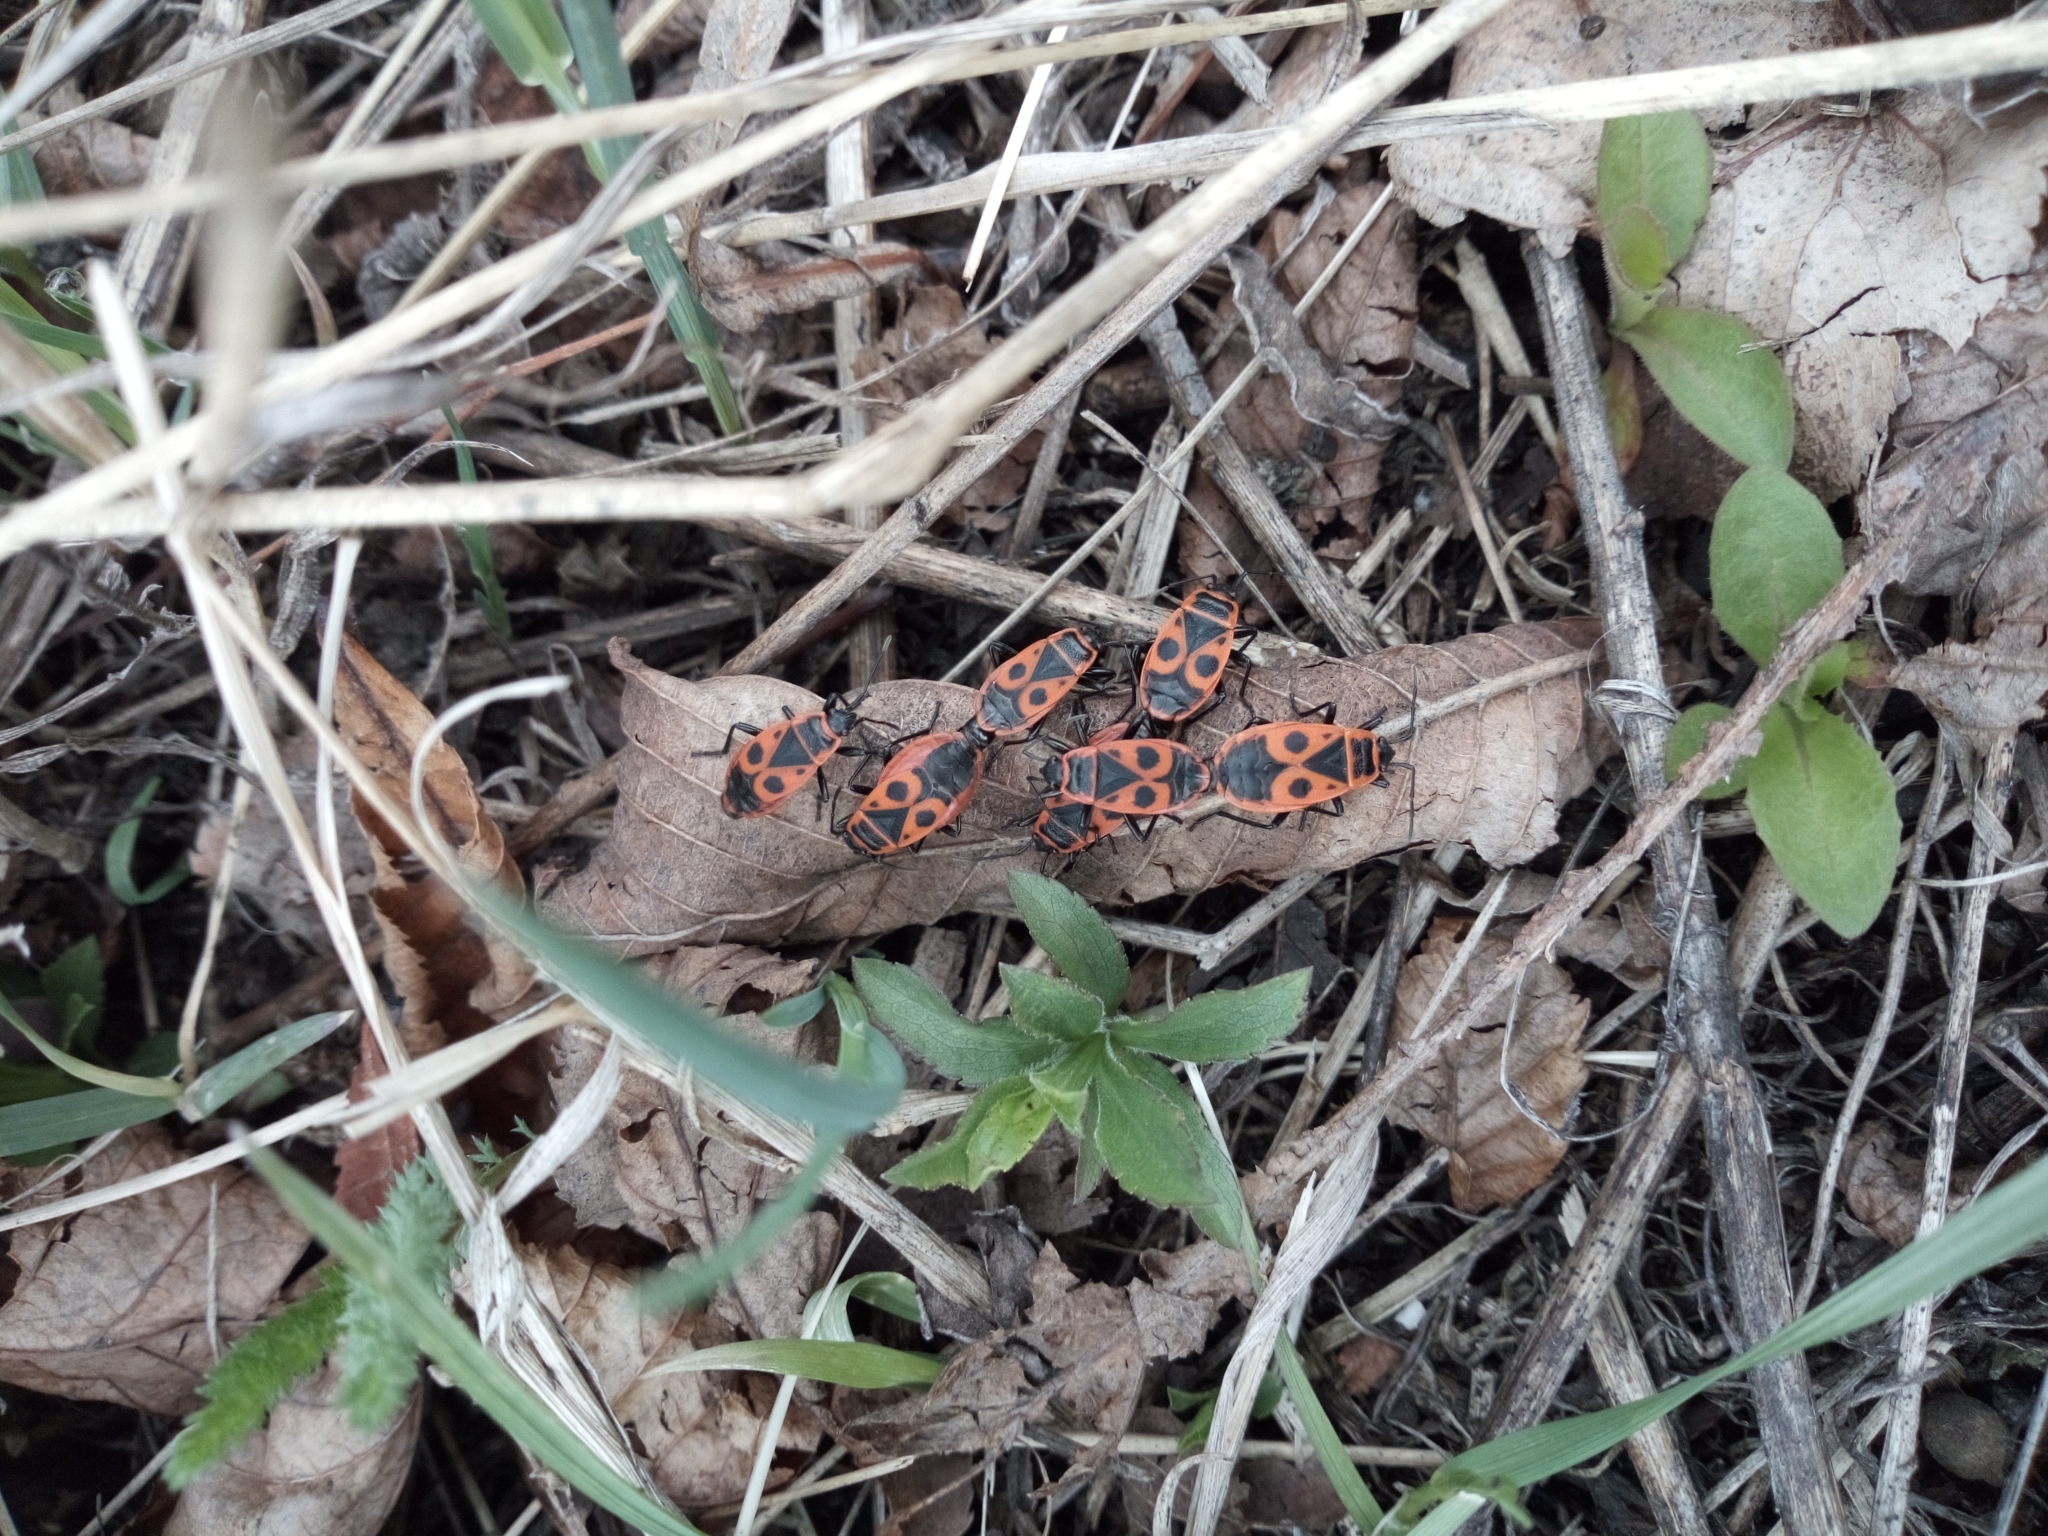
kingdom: Animalia
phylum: Arthropoda
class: Insecta
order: Hemiptera
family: Pyrrhocoridae
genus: Pyrrhocoris
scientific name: Pyrrhocoris apterus
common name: Firebug
